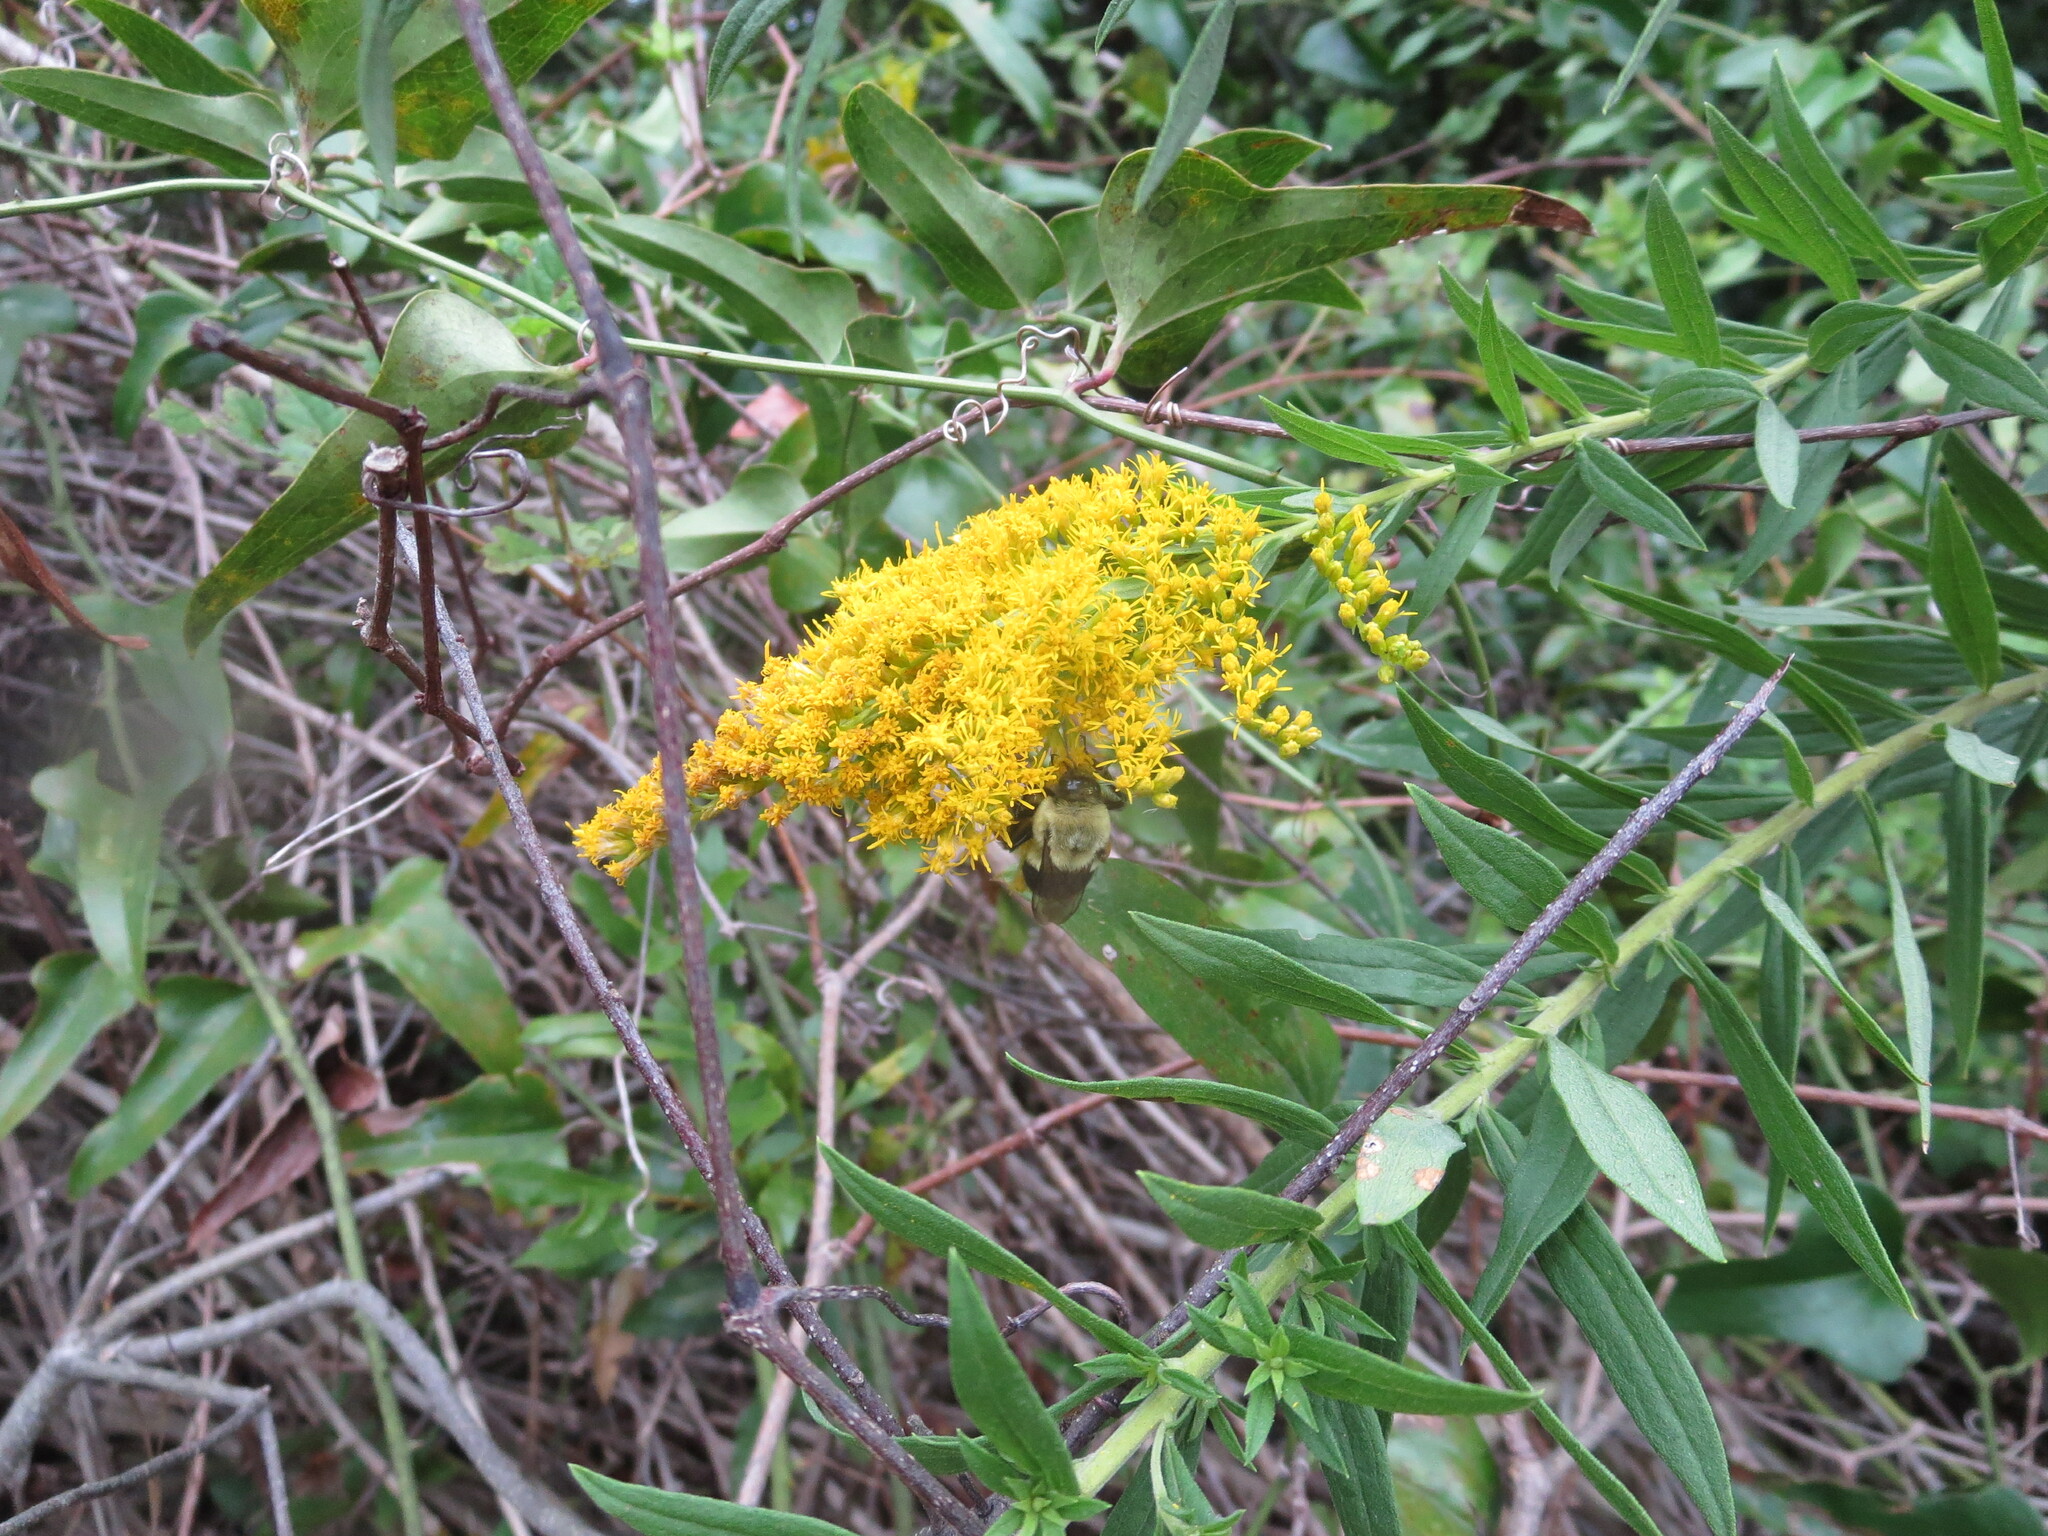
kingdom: Animalia
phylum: Arthropoda
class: Insecta
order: Hymenoptera
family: Apidae
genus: Bombus
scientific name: Bombus impatiens
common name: Common eastern bumble bee
